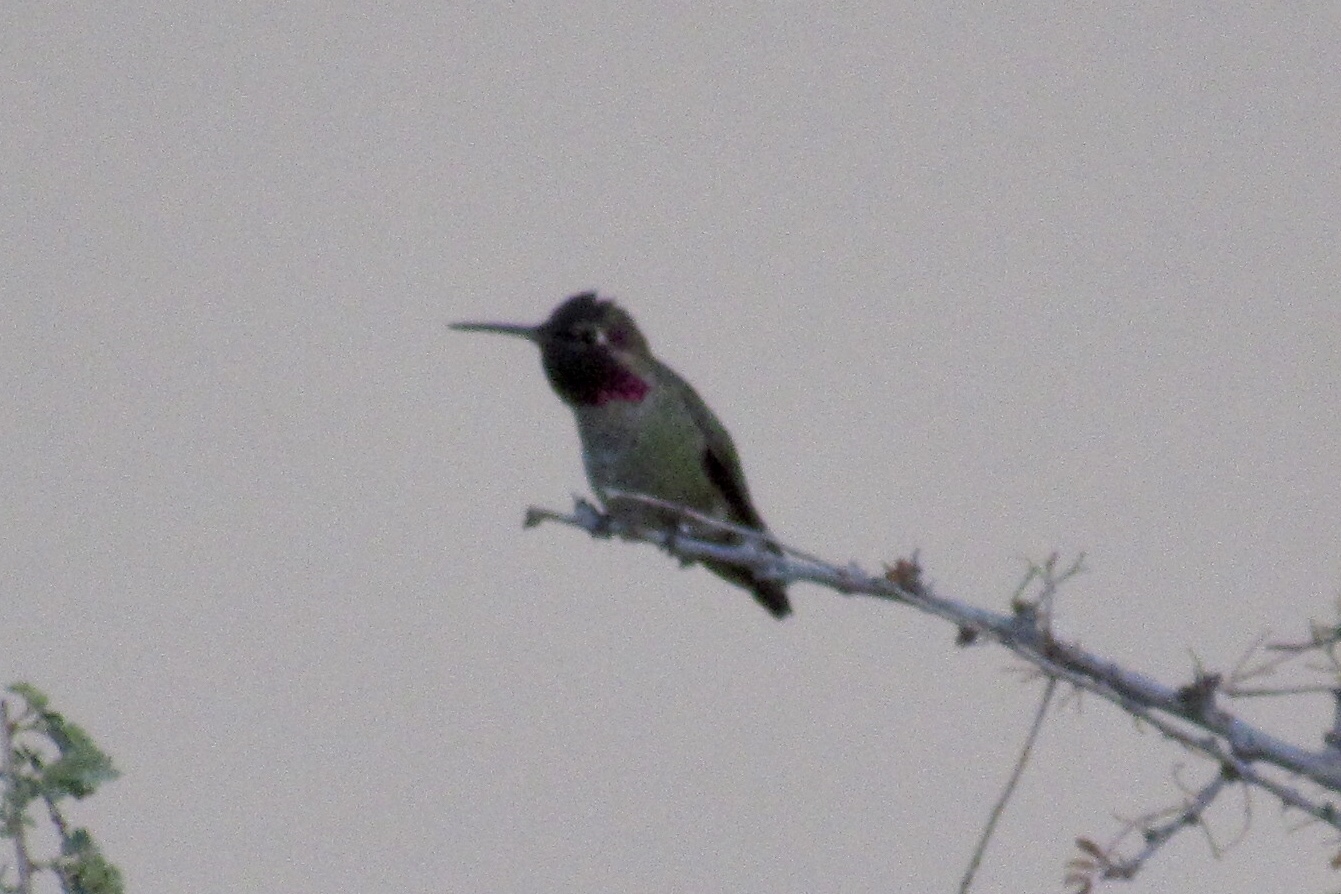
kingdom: Animalia
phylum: Chordata
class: Aves
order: Apodiformes
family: Trochilidae
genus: Calypte
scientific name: Calypte anna
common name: Anna's hummingbird
